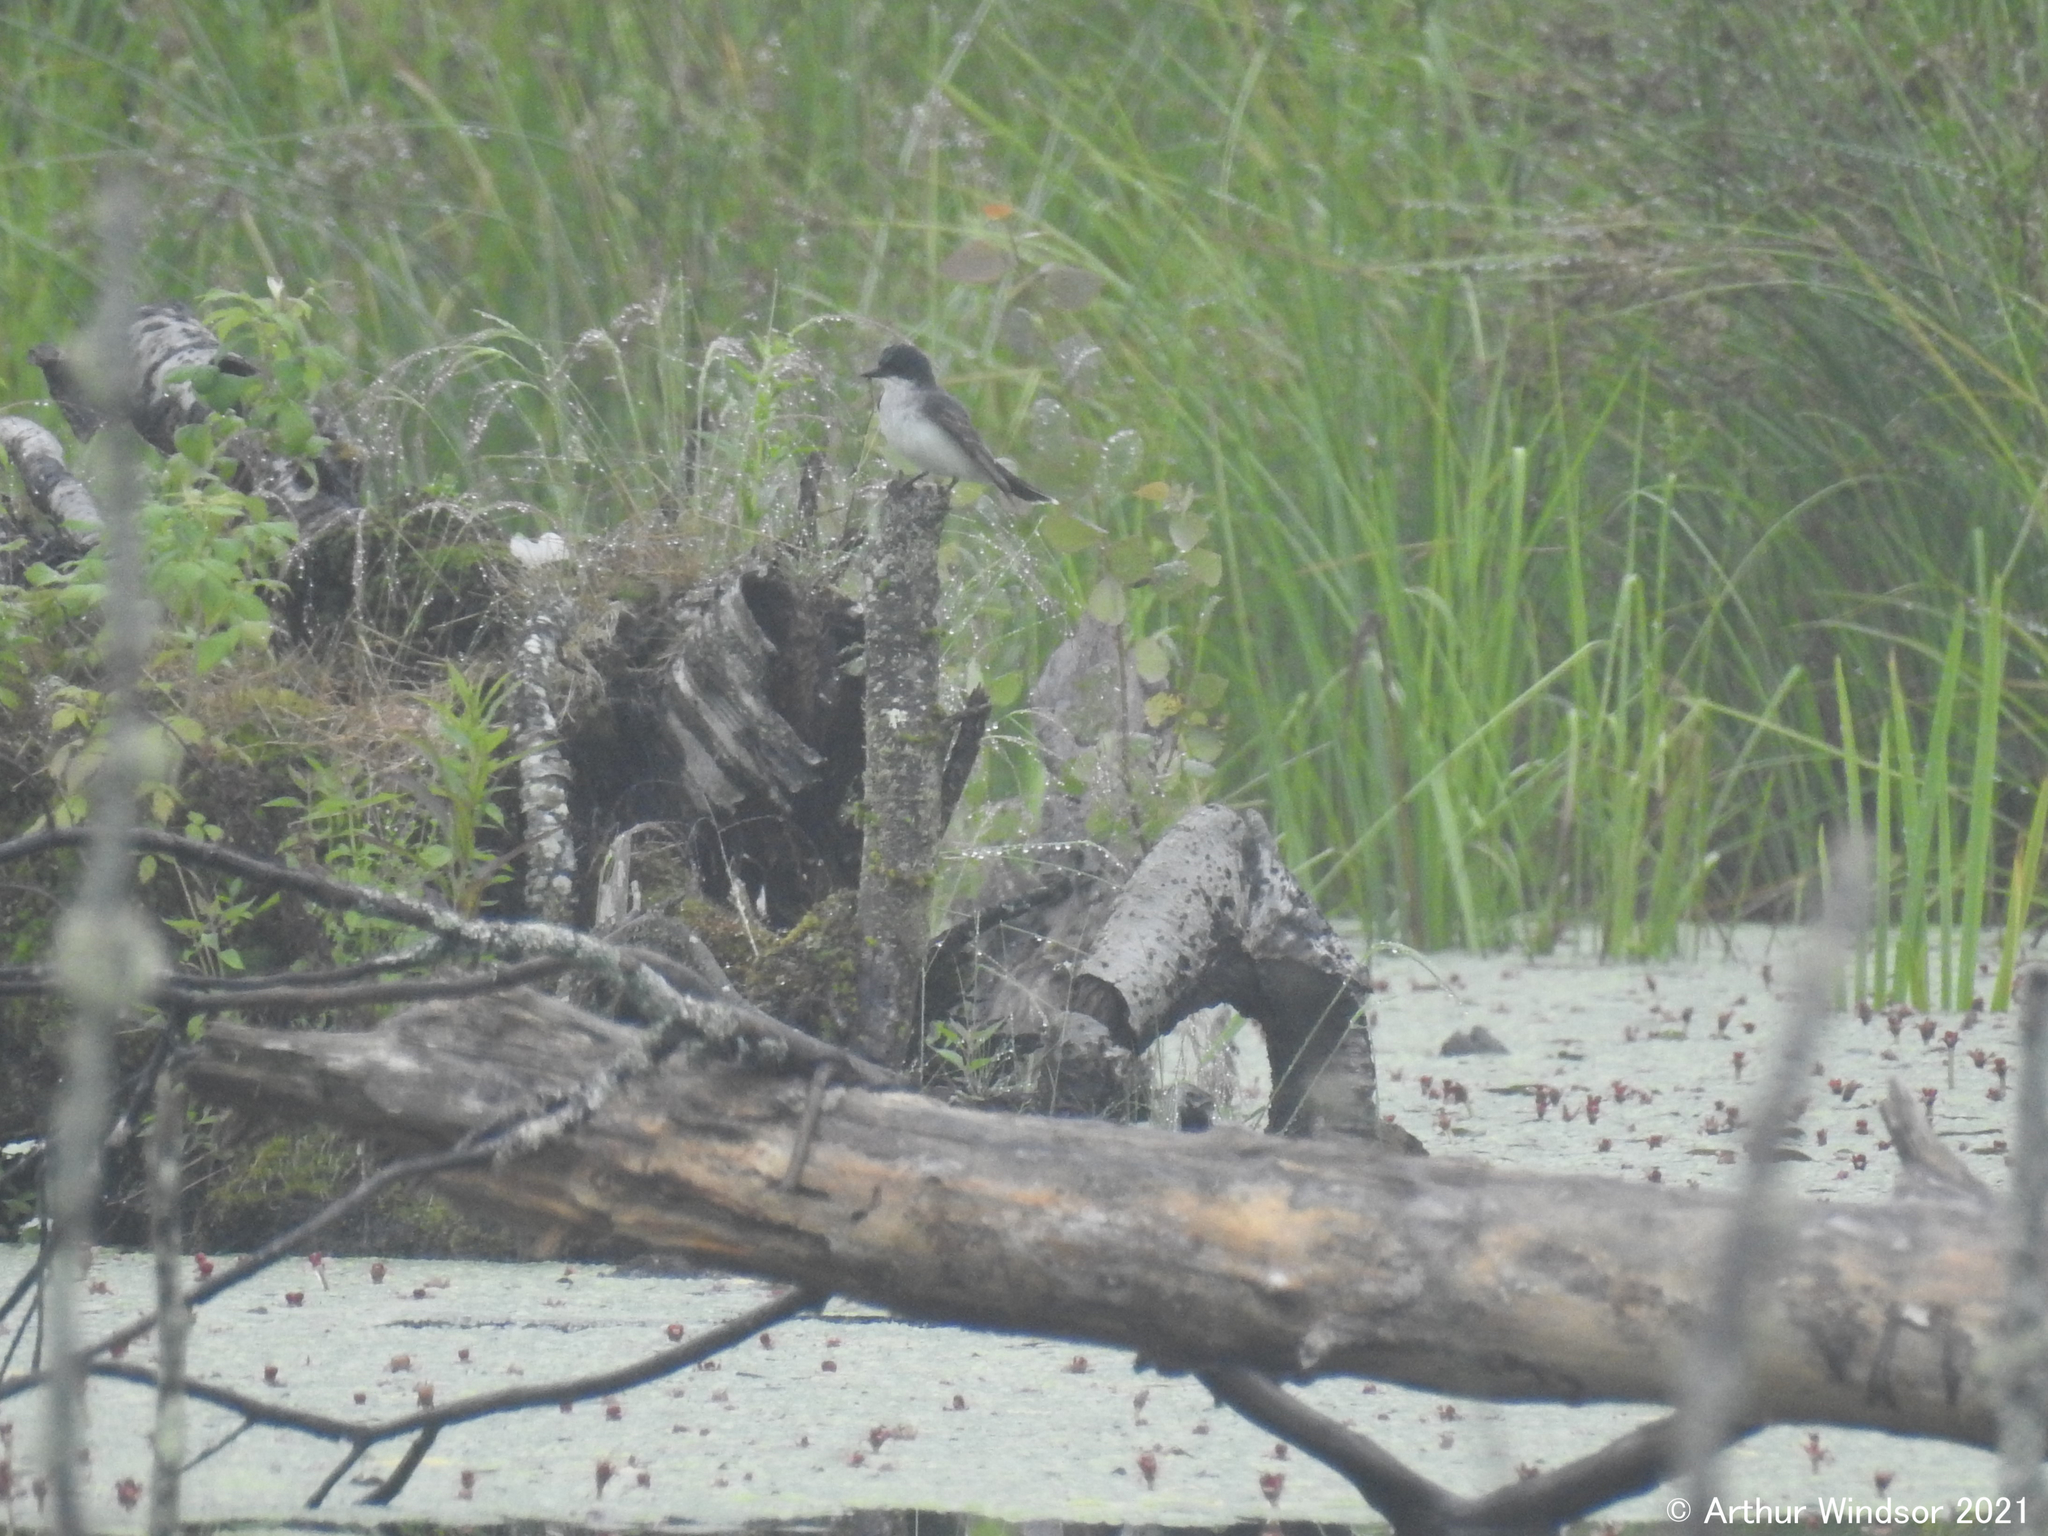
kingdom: Animalia
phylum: Chordata
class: Aves
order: Passeriformes
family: Tyrannidae
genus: Tyrannus
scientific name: Tyrannus tyrannus
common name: Eastern kingbird
